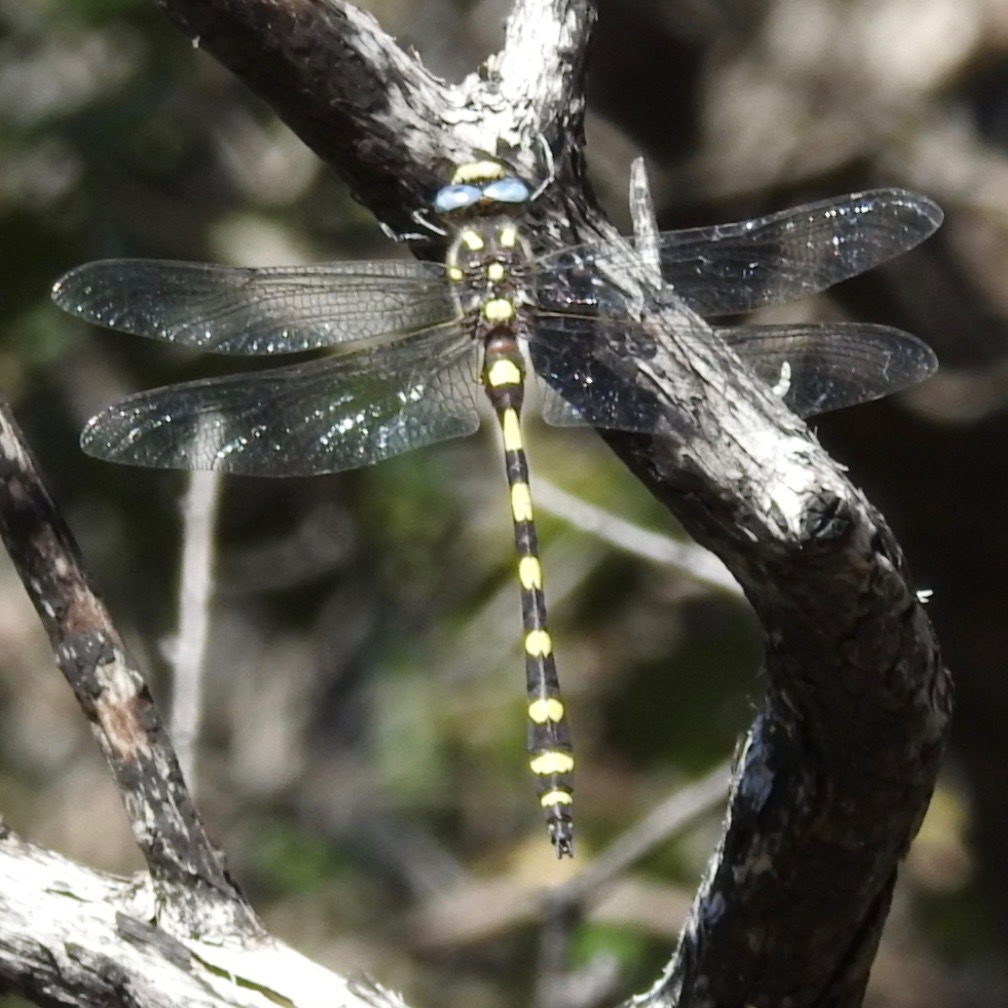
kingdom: Animalia
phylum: Arthropoda
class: Insecta
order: Odonata
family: Cordulegastridae
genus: Cordulegaster
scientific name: Cordulegaster dorsalis
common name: Pacific spiketail
